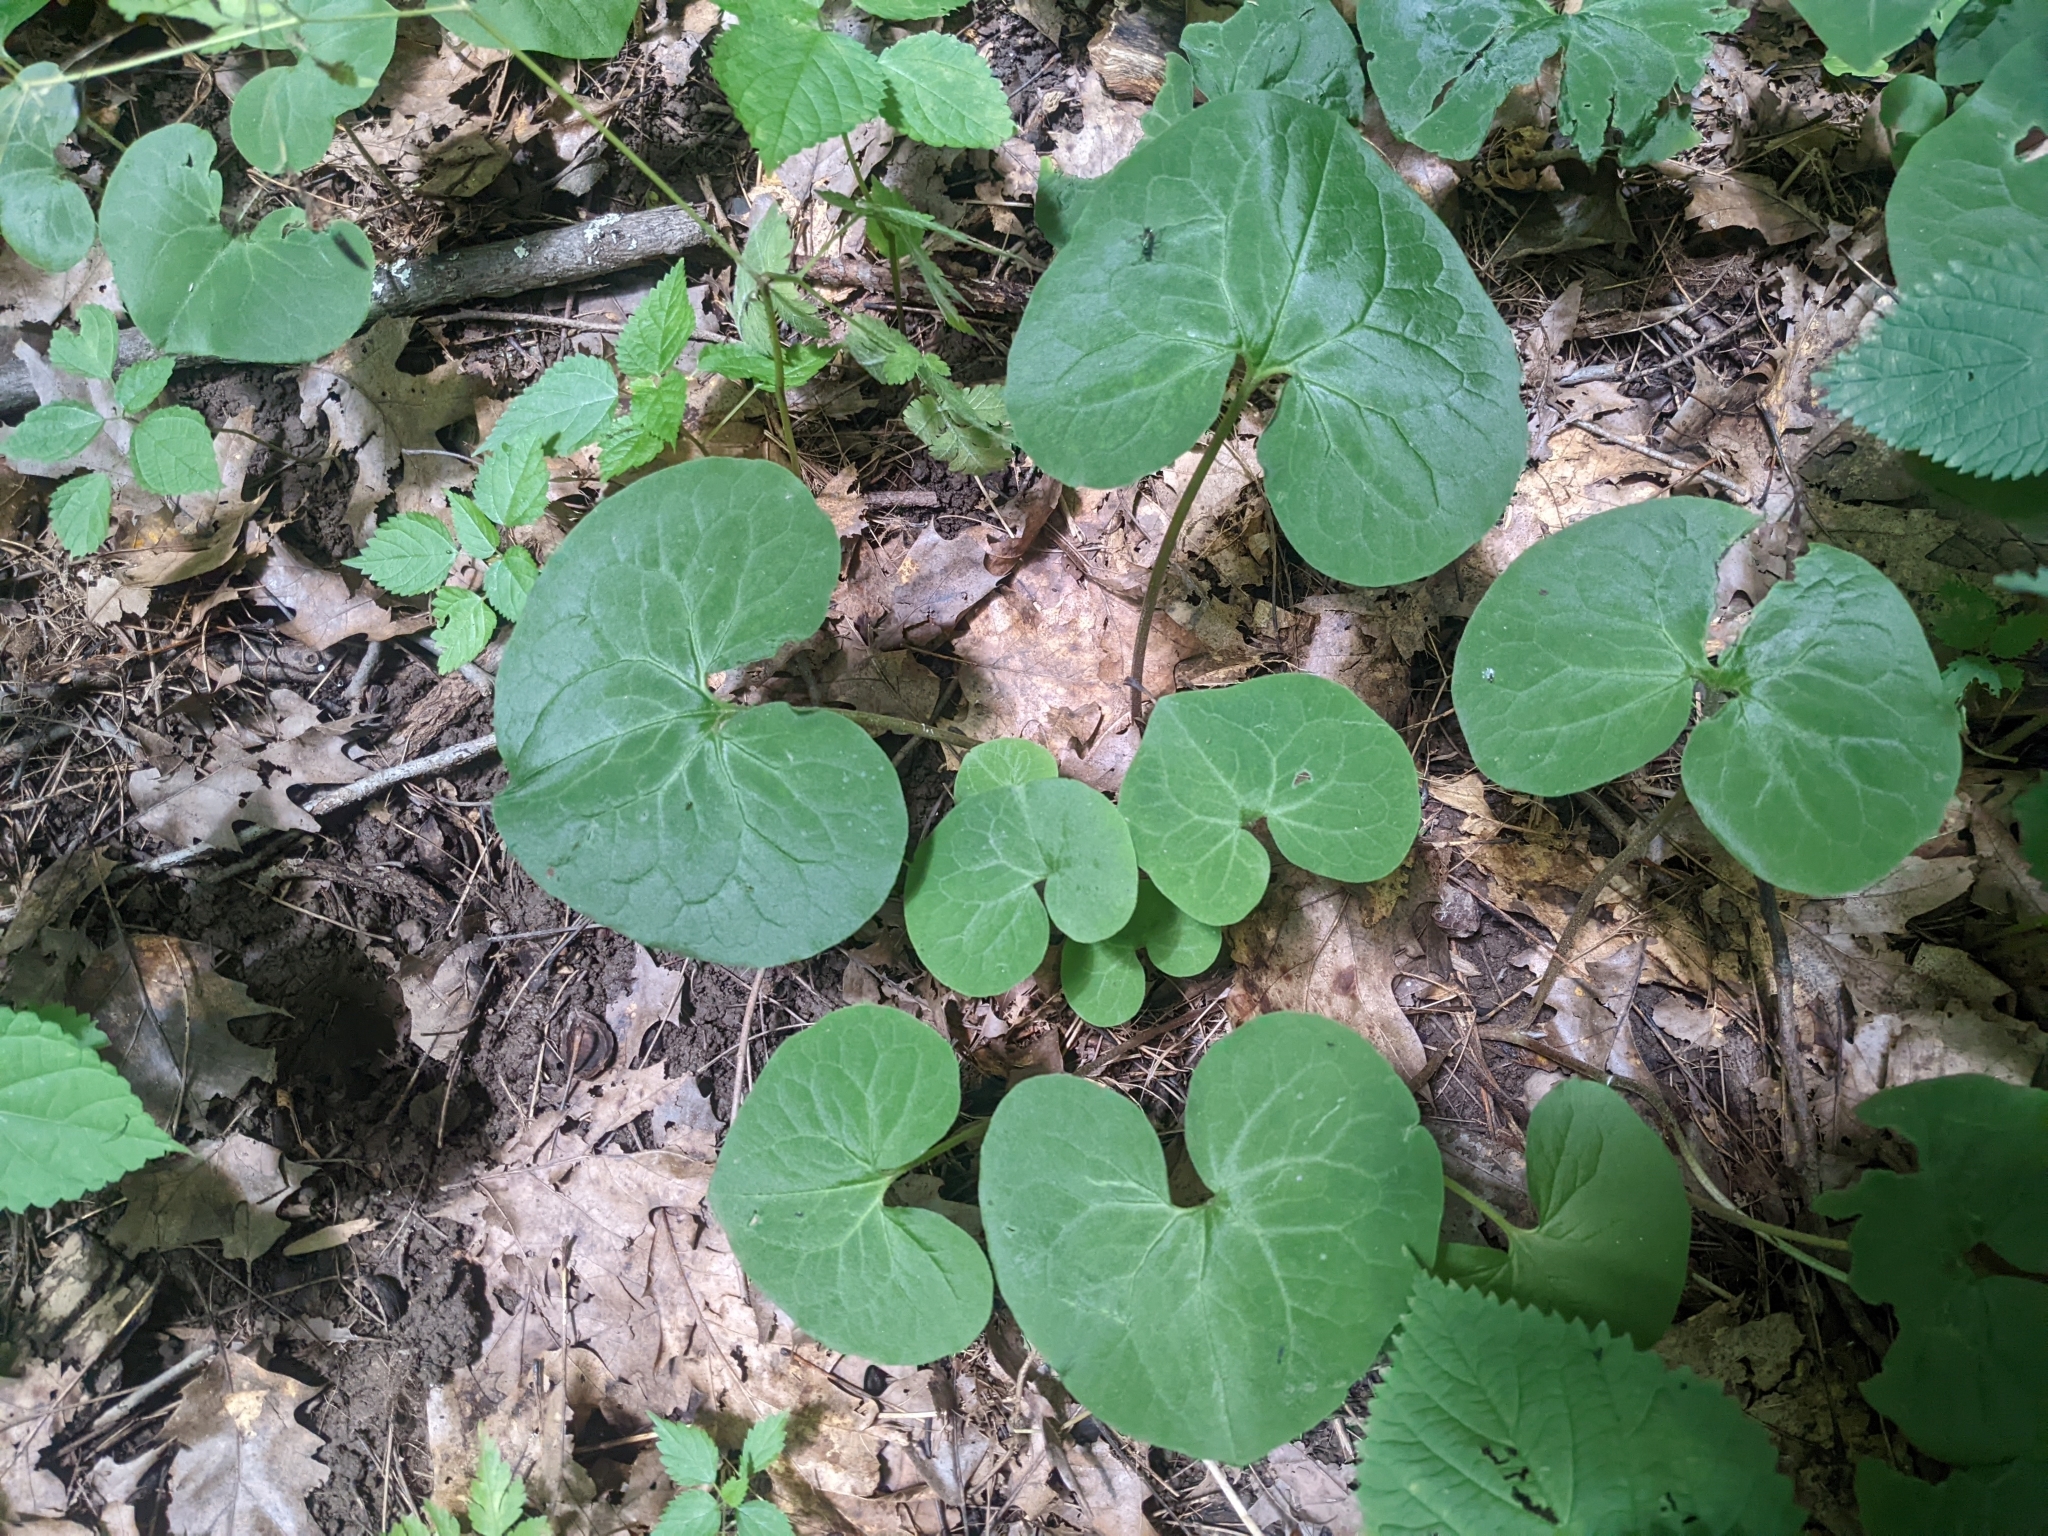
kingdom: Plantae
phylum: Tracheophyta
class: Magnoliopsida
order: Piperales
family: Aristolochiaceae
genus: Asarum
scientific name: Asarum canadense
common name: Wild ginger
